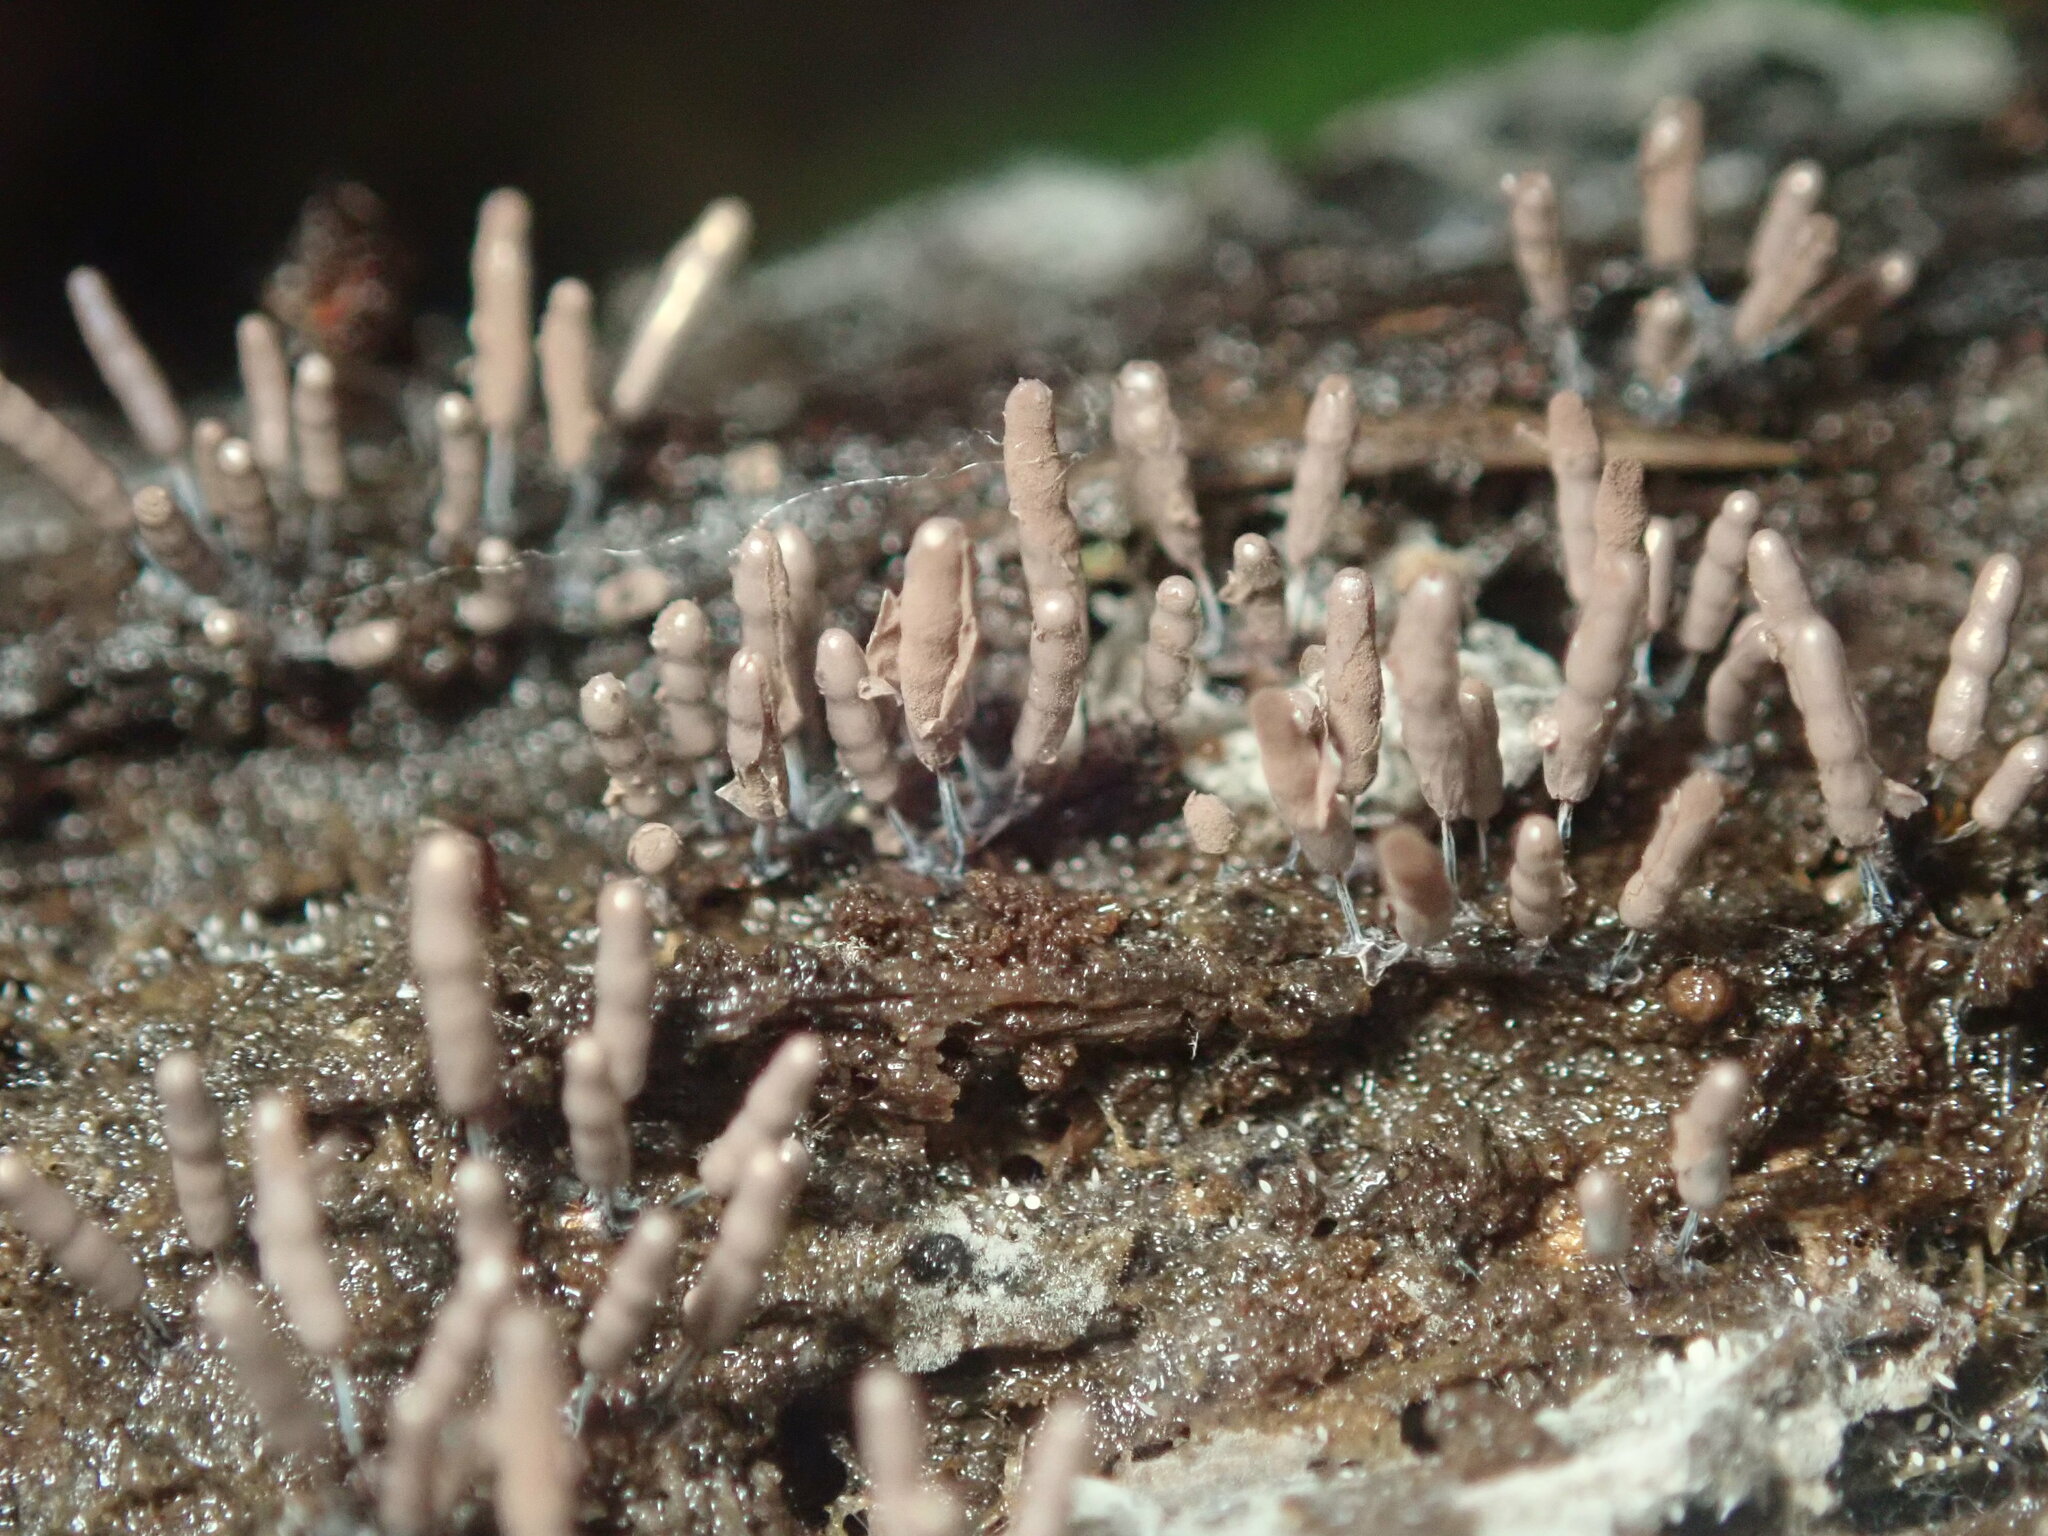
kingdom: Protozoa
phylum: Mycetozoa
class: Myxomycetes
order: Stemonitidales
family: Stemonitidaceae
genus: Stemonitopsis
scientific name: Stemonitopsis typhina
